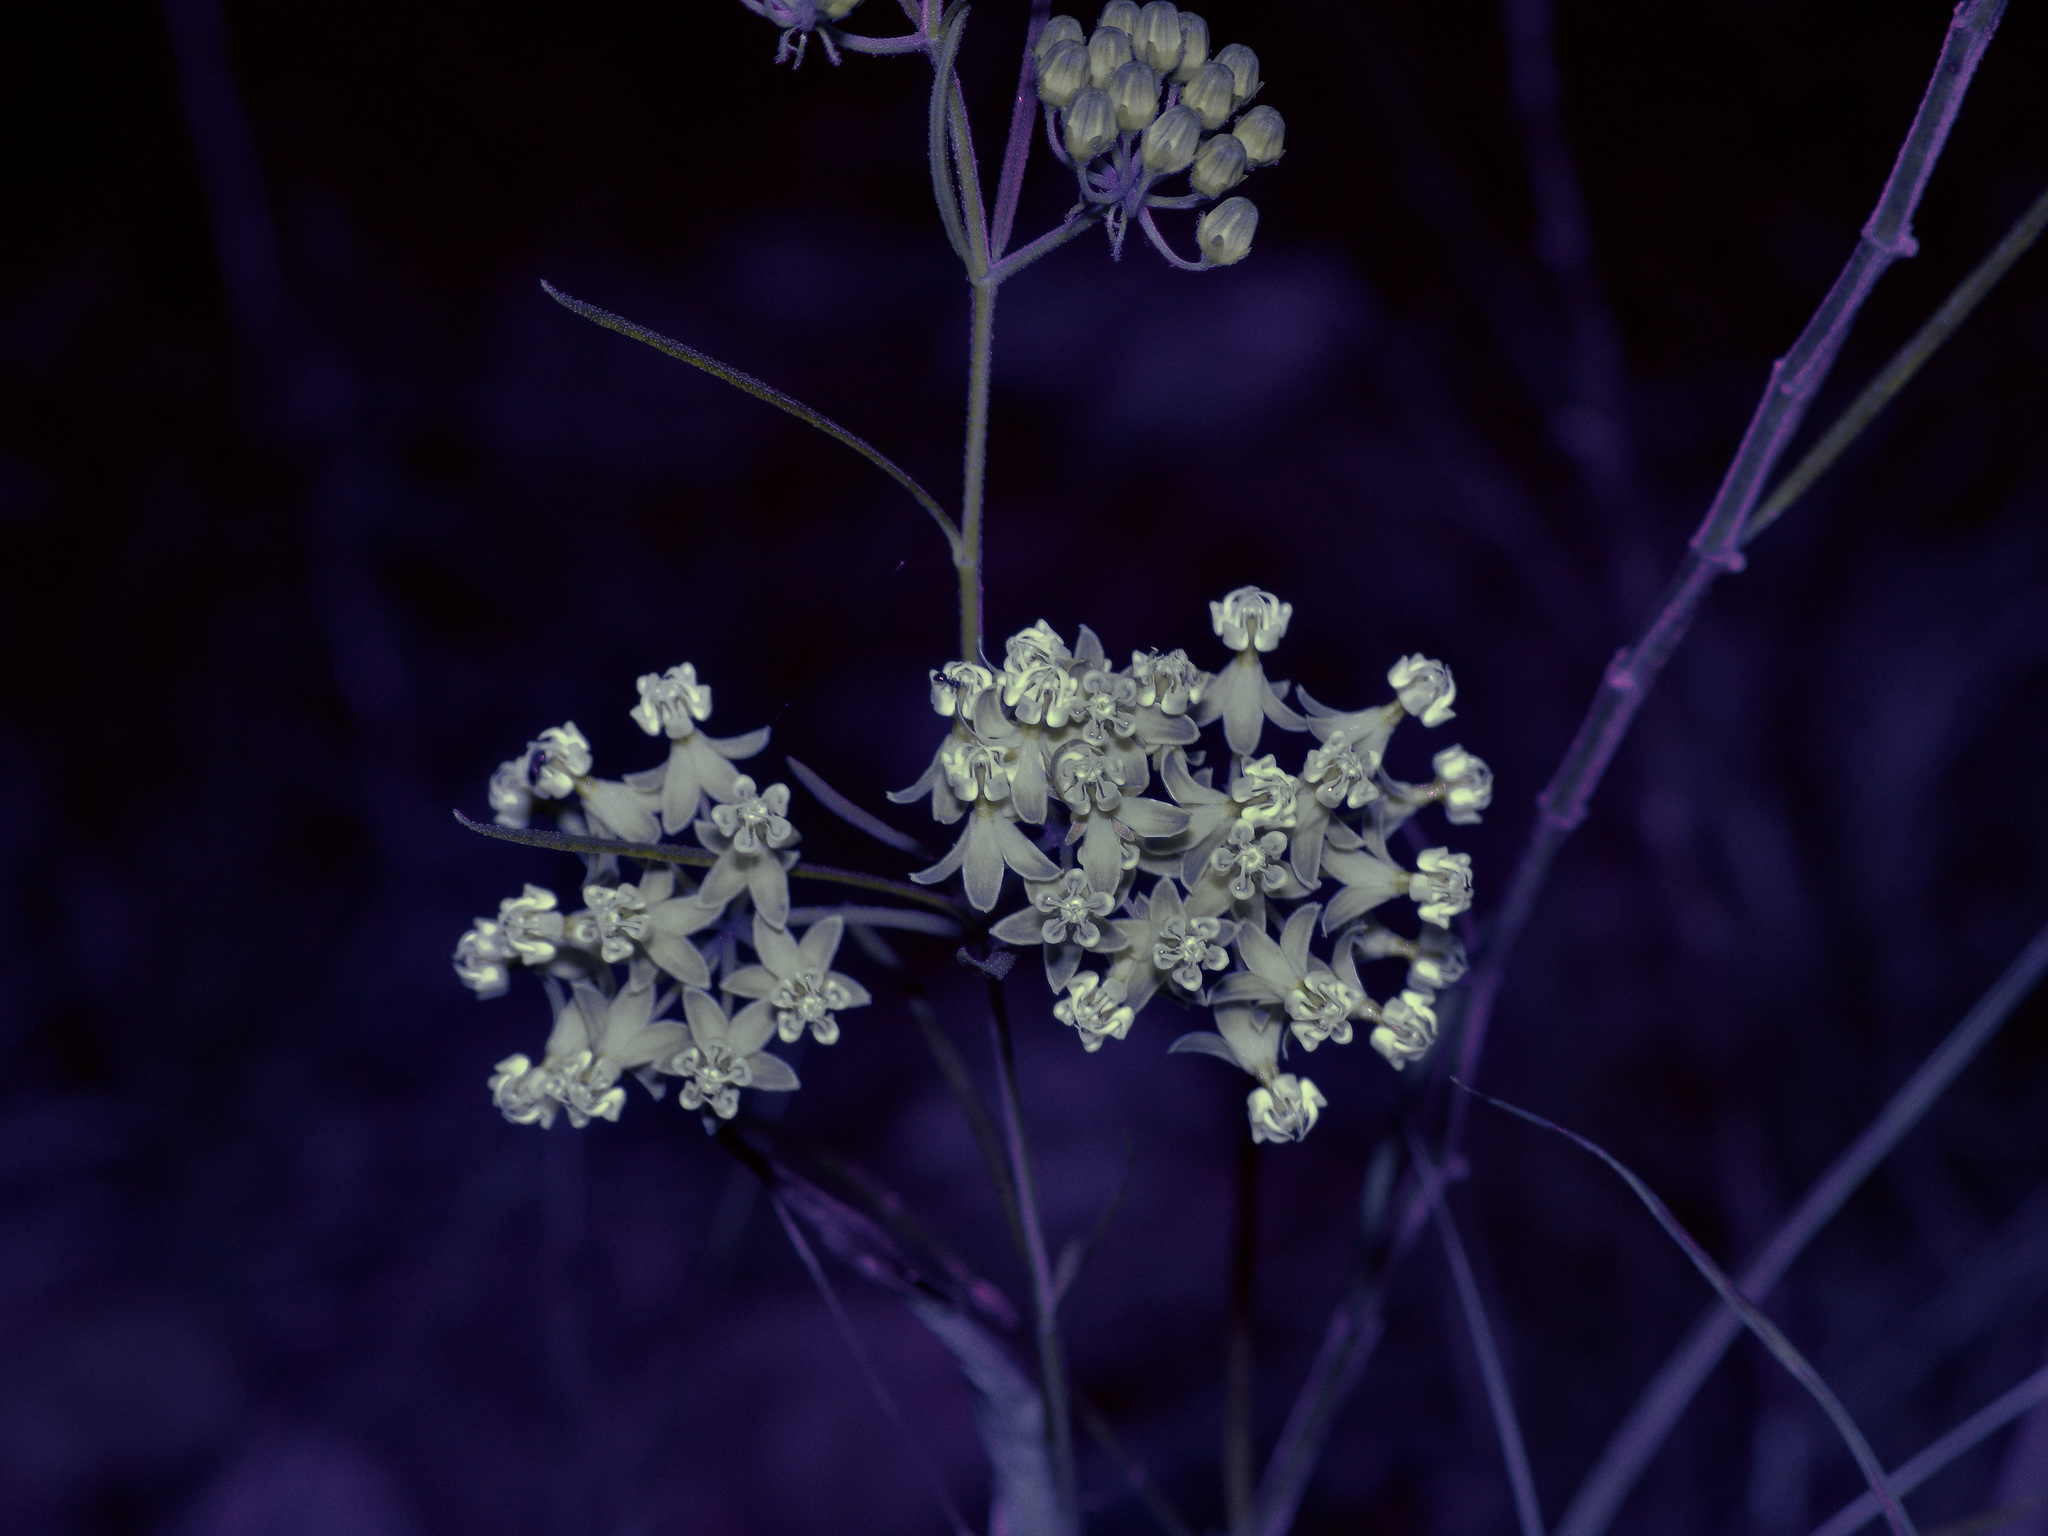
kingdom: Plantae
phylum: Tracheophyta
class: Magnoliopsida
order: Gentianales
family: Apocynaceae
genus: Asclepias
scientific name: Asclepias verticillata
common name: Eastern whorled milkweed
